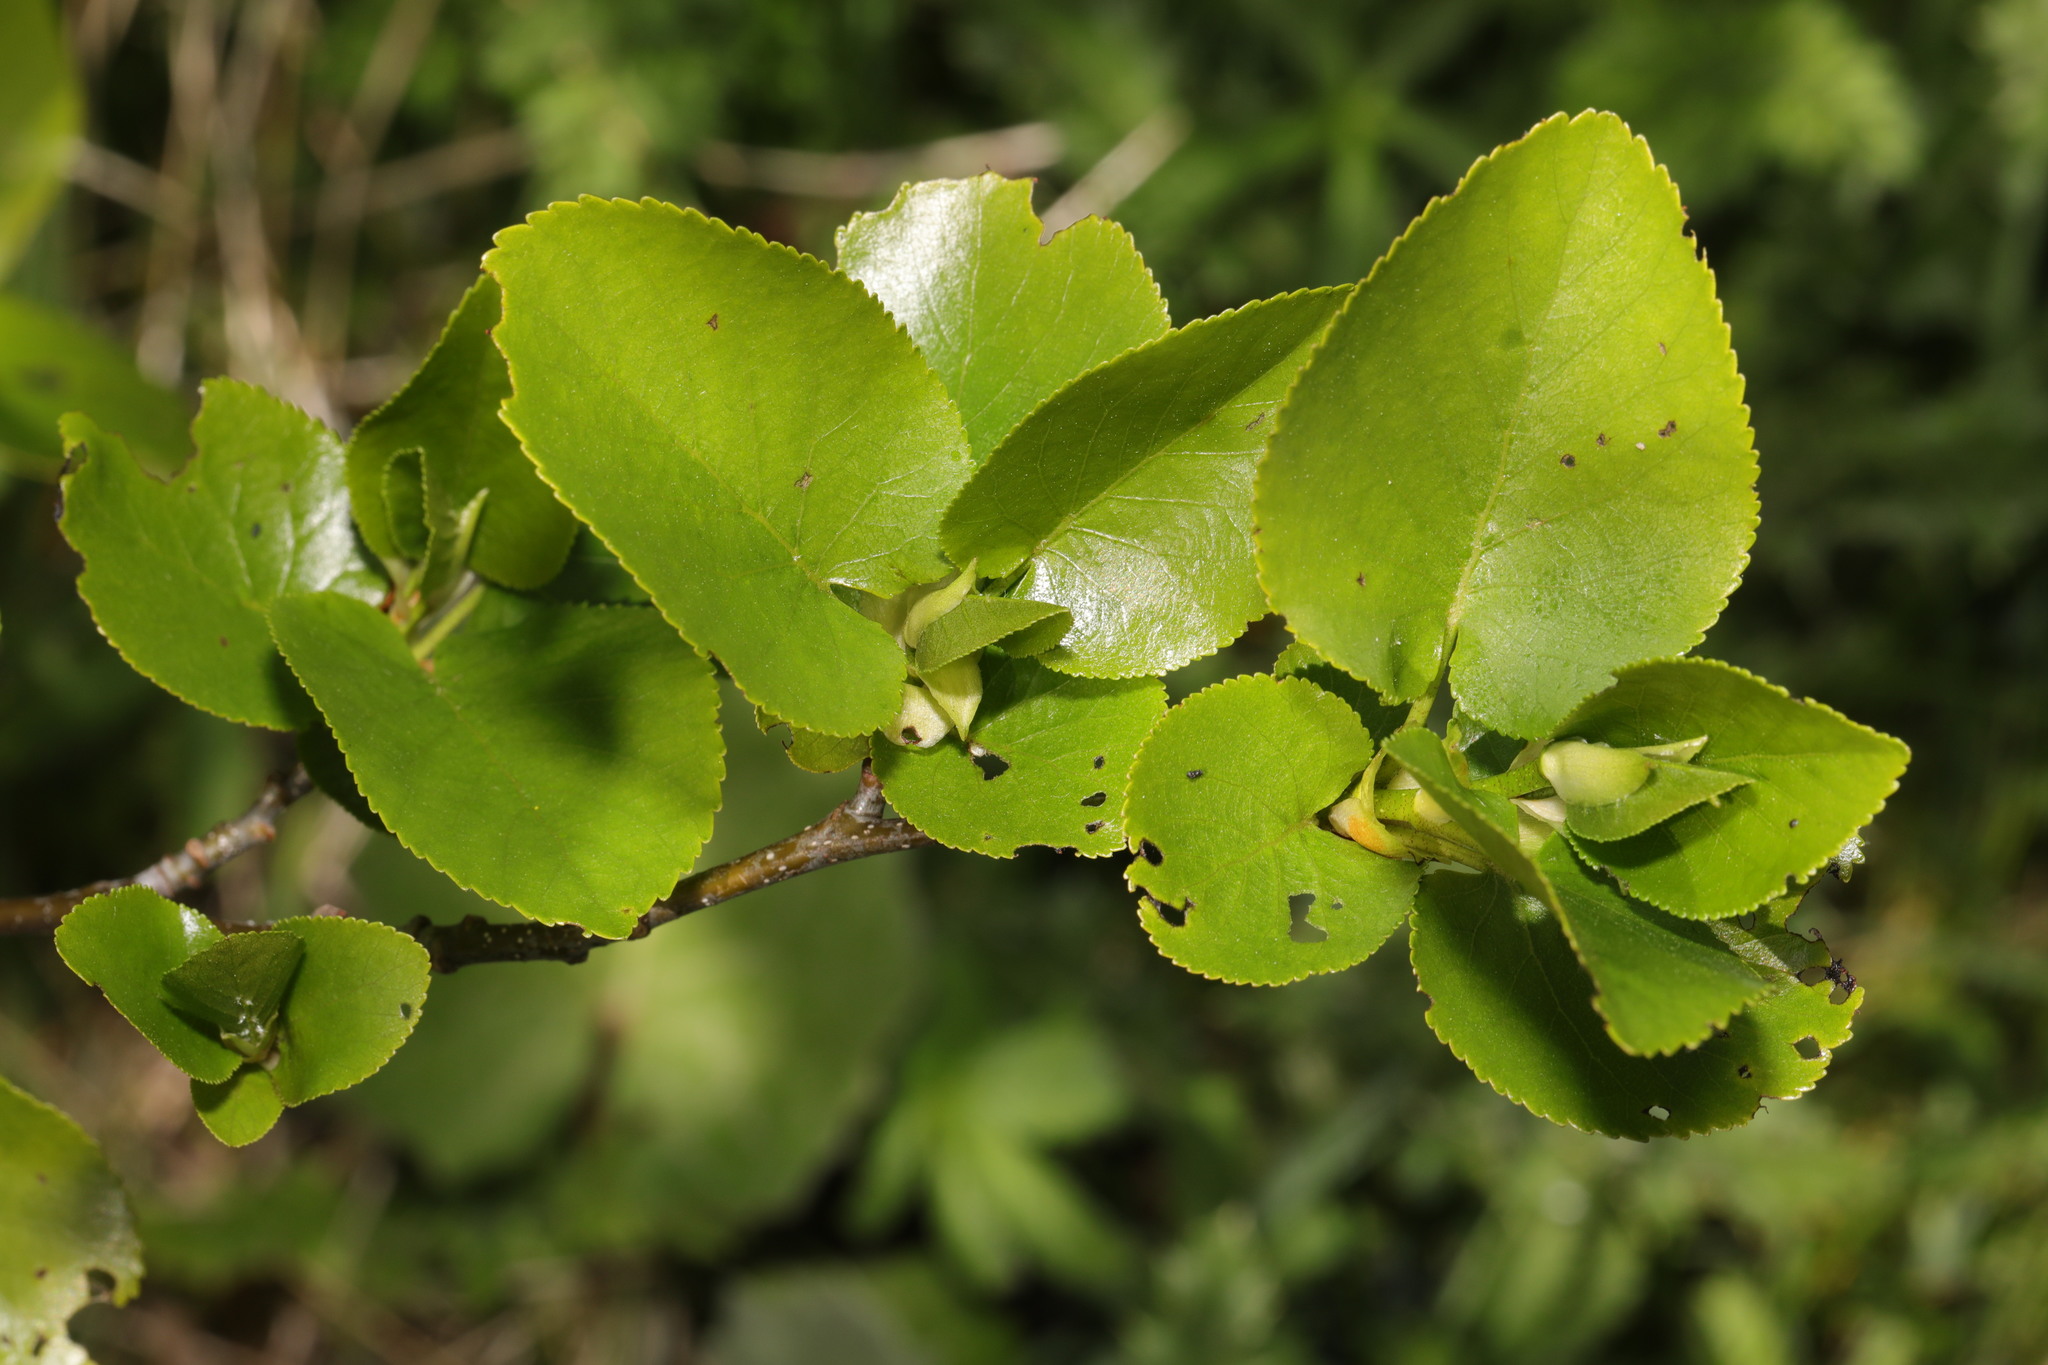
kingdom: Plantae
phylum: Tracheophyta
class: Magnoliopsida
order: Fagales
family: Betulaceae
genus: Alnus
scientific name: Alnus cordata
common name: Italian alder
